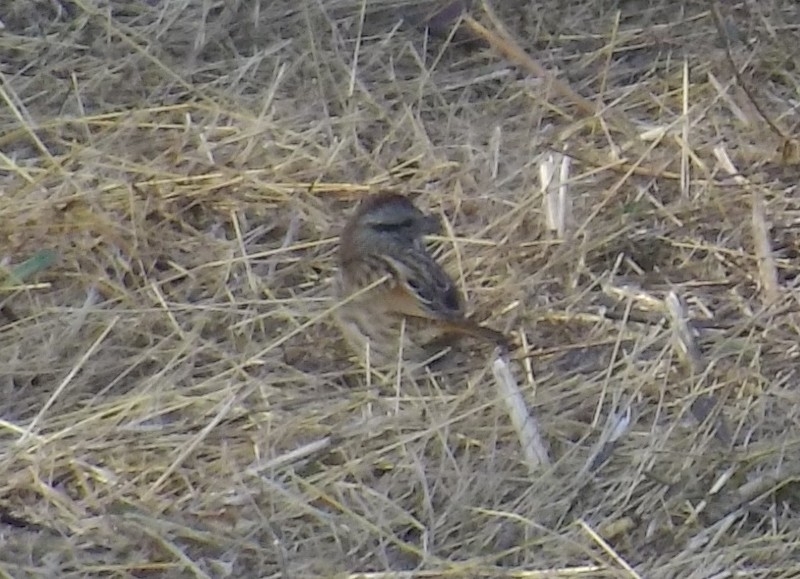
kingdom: Animalia
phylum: Chordata
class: Aves
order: Passeriformes
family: Passerellidae
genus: Melospiza
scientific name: Melospiza melodia
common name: Song sparrow
